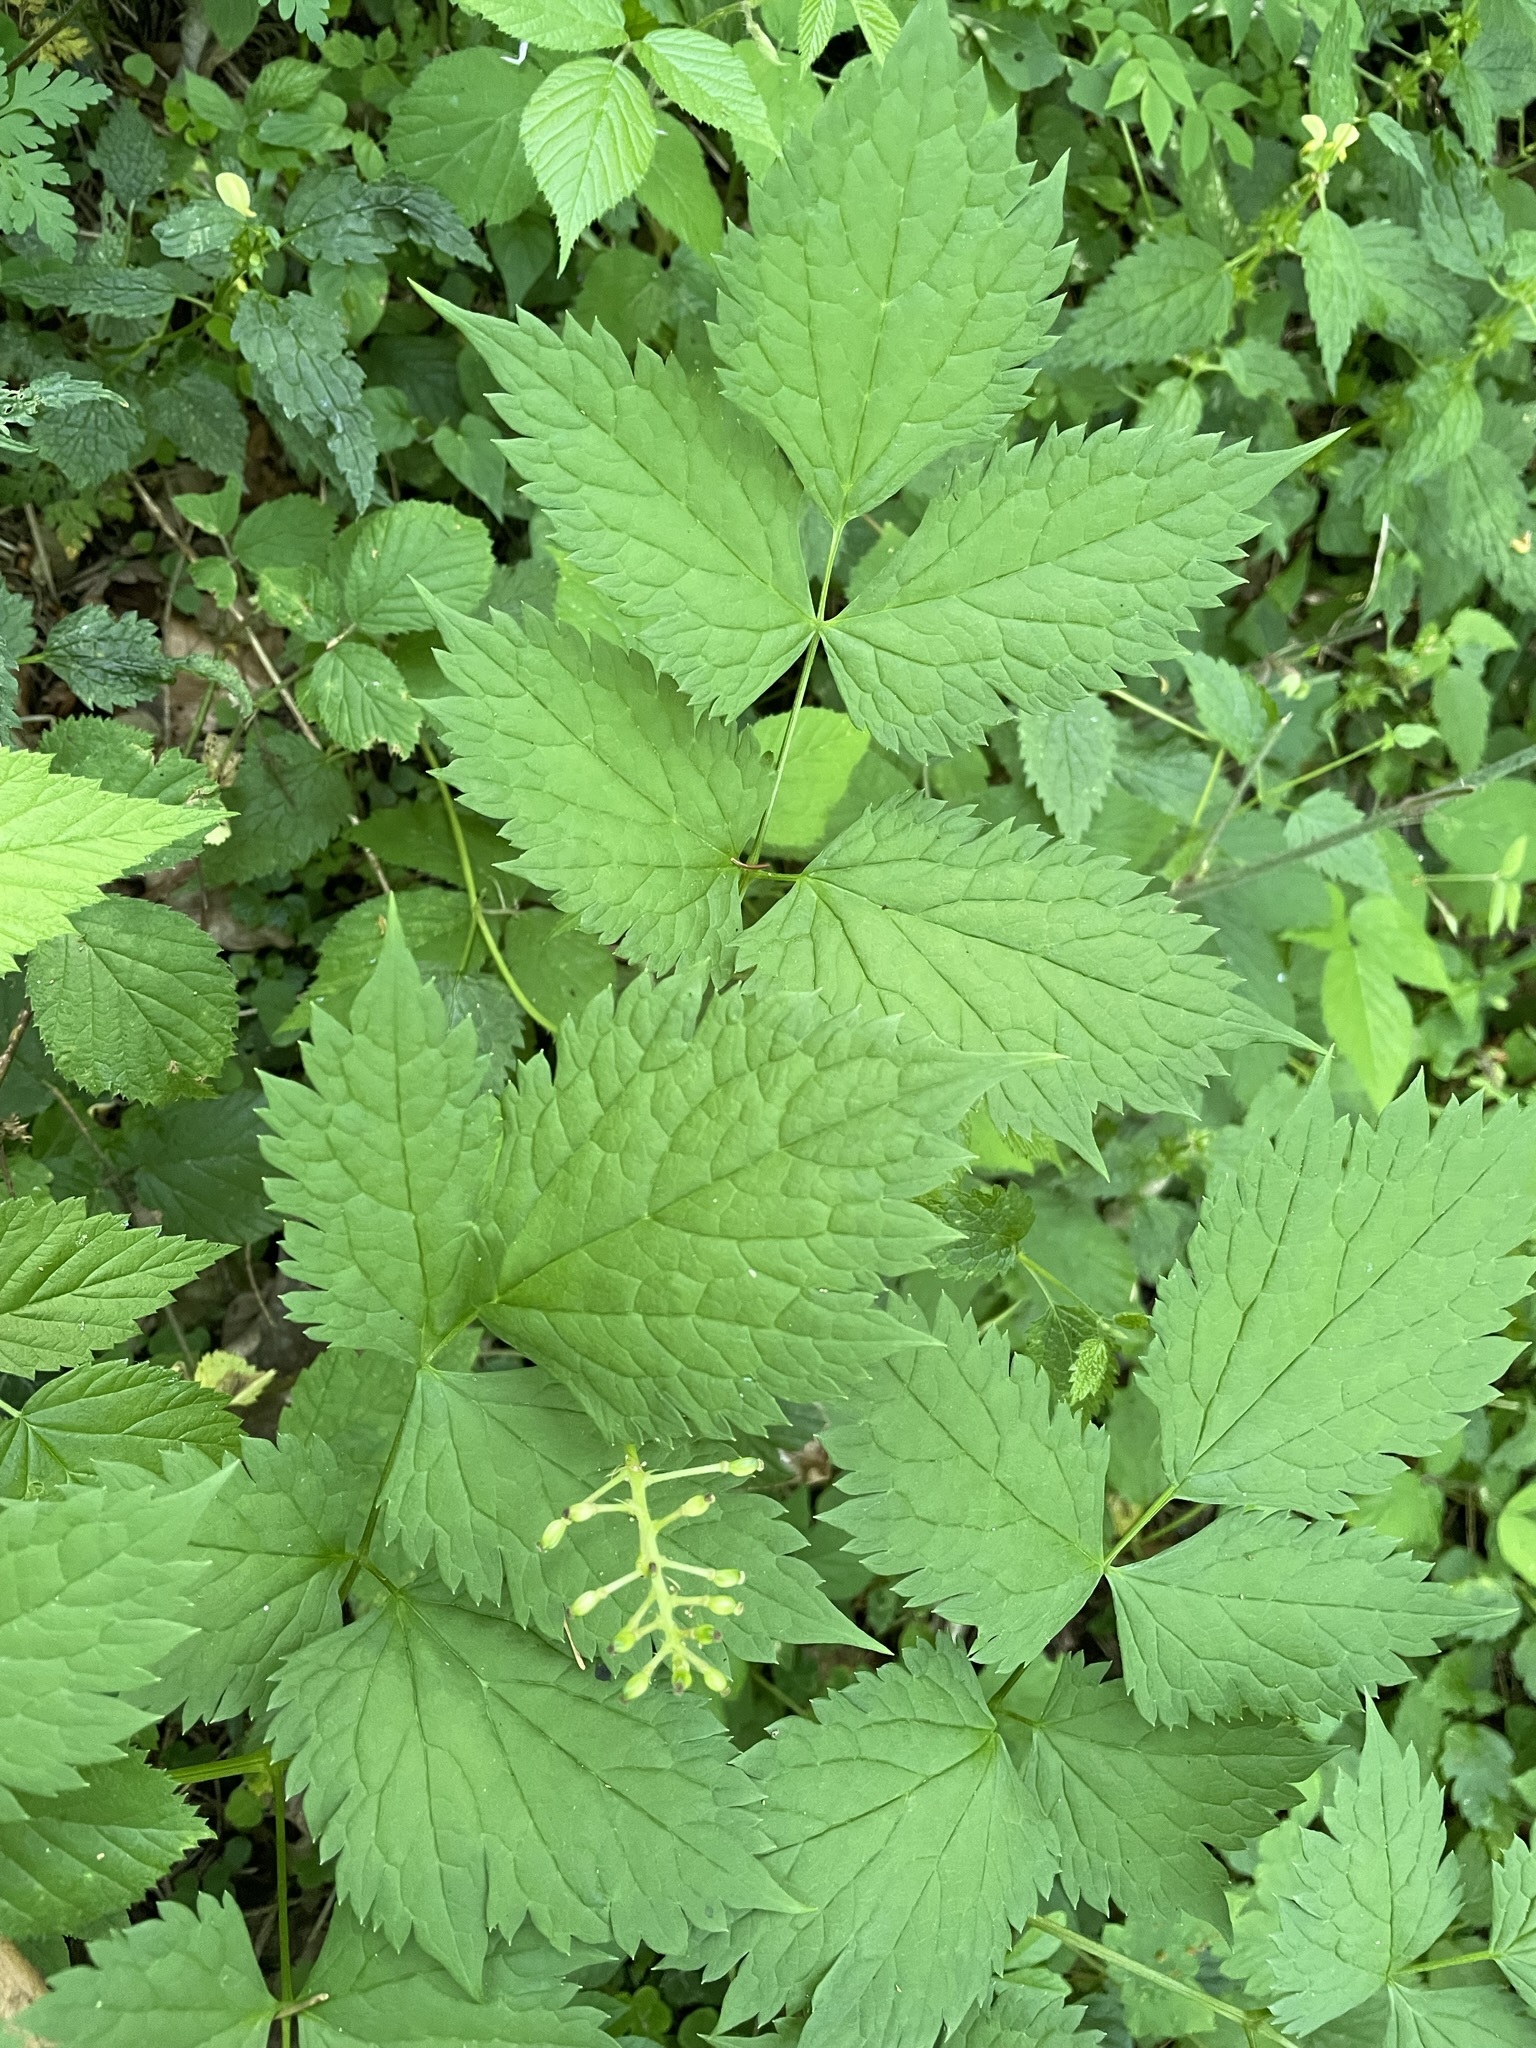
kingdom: Plantae
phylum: Tracheophyta
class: Magnoliopsida
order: Ranunculales
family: Ranunculaceae
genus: Actaea
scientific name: Actaea spicata
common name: Baneberry
